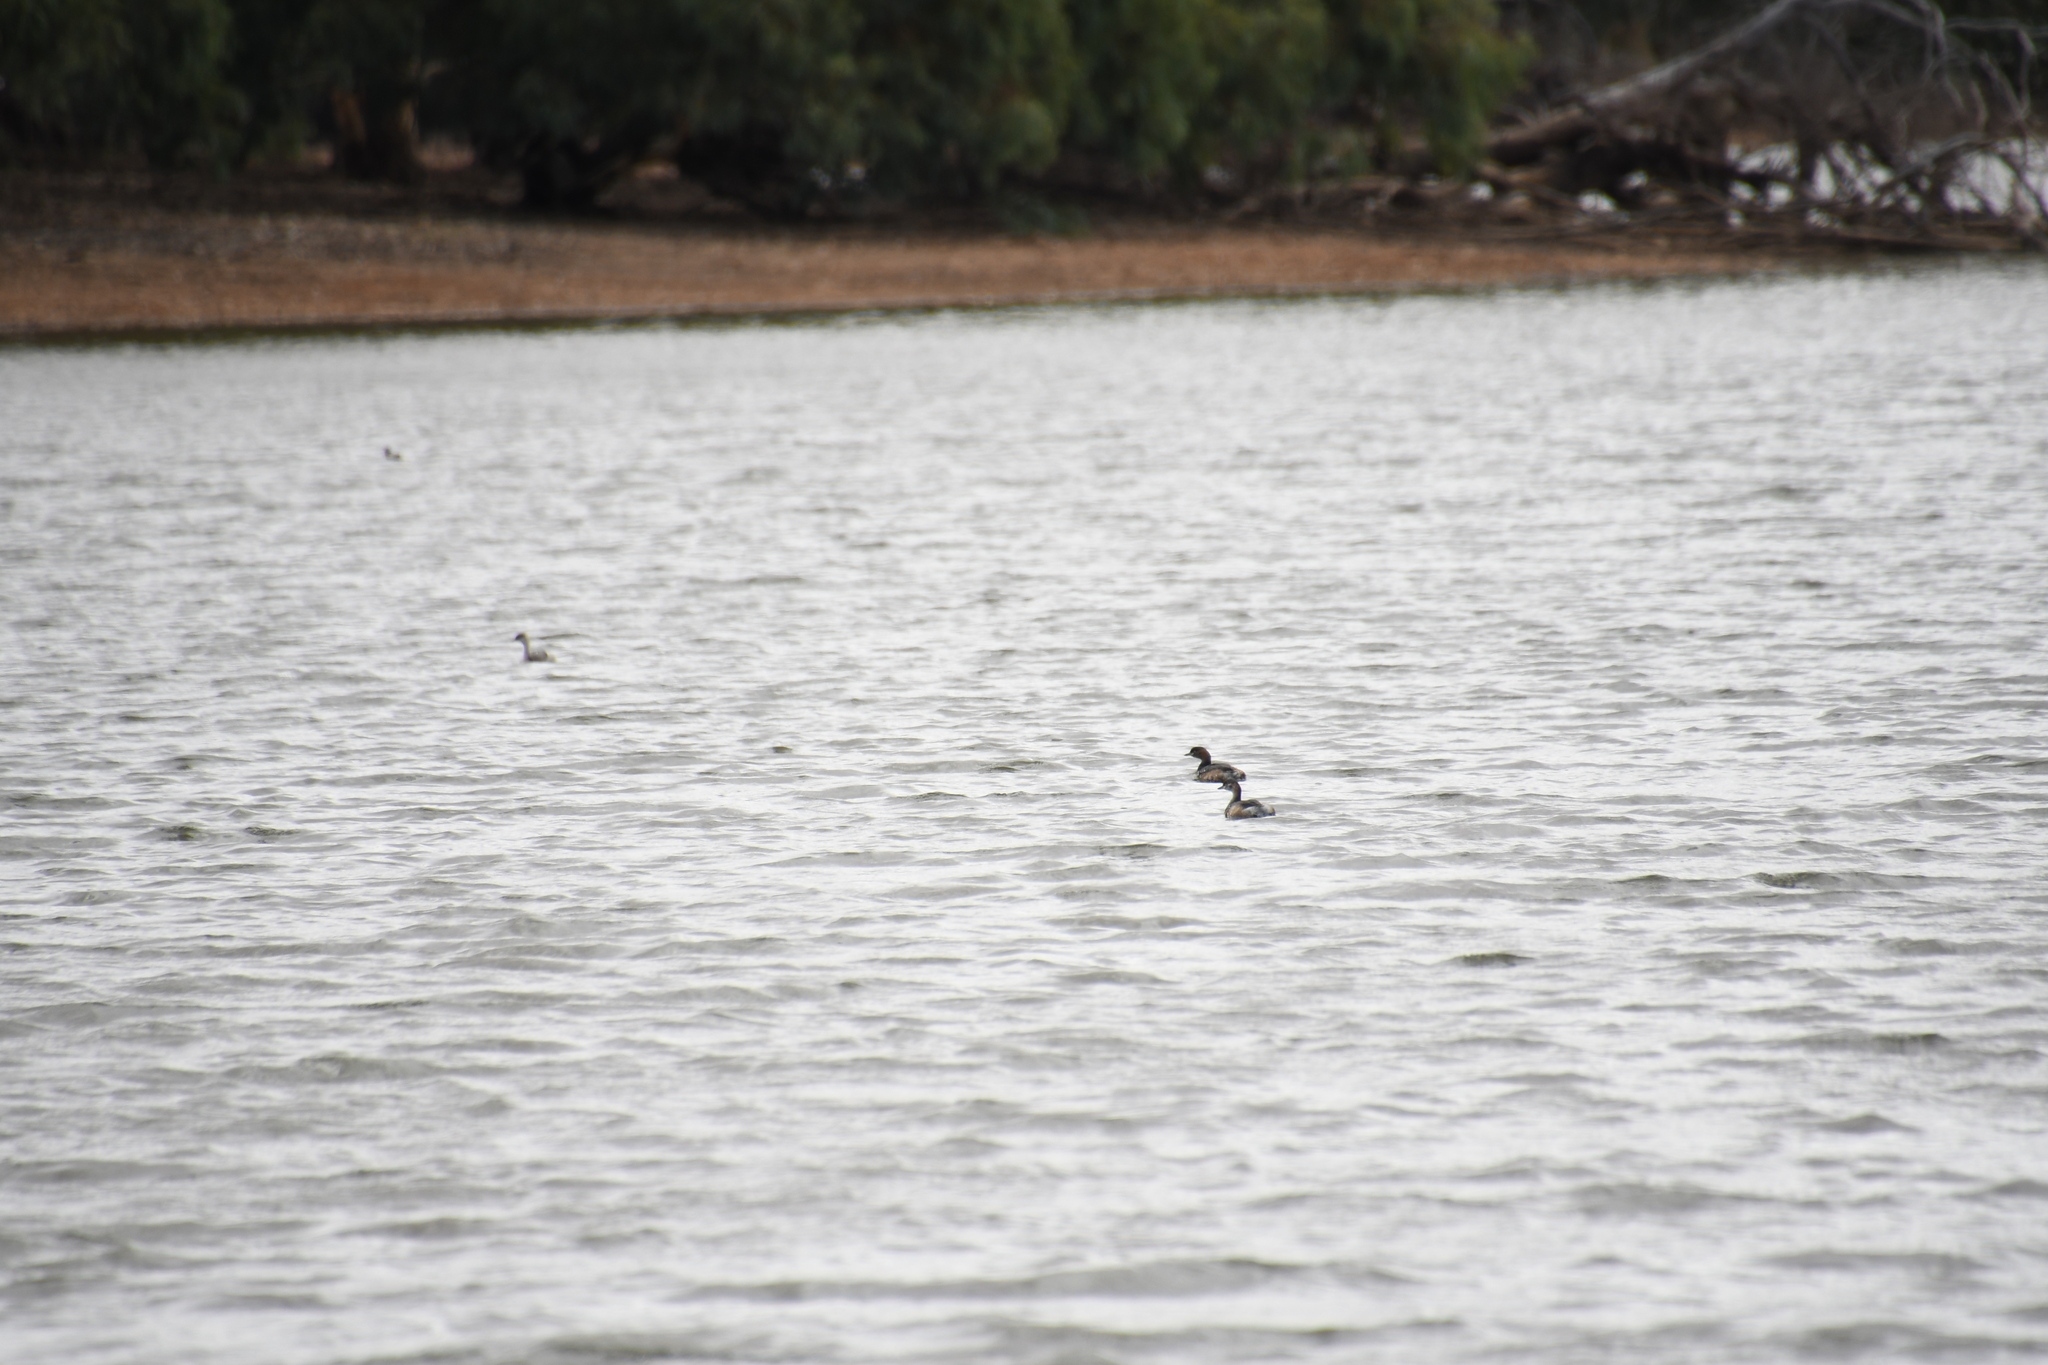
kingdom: Animalia
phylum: Chordata
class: Aves
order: Podicipediformes
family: Podicipedidae
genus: Tachybaptus
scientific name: Tachybaptus novaehollandiae
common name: Australasian grebe
